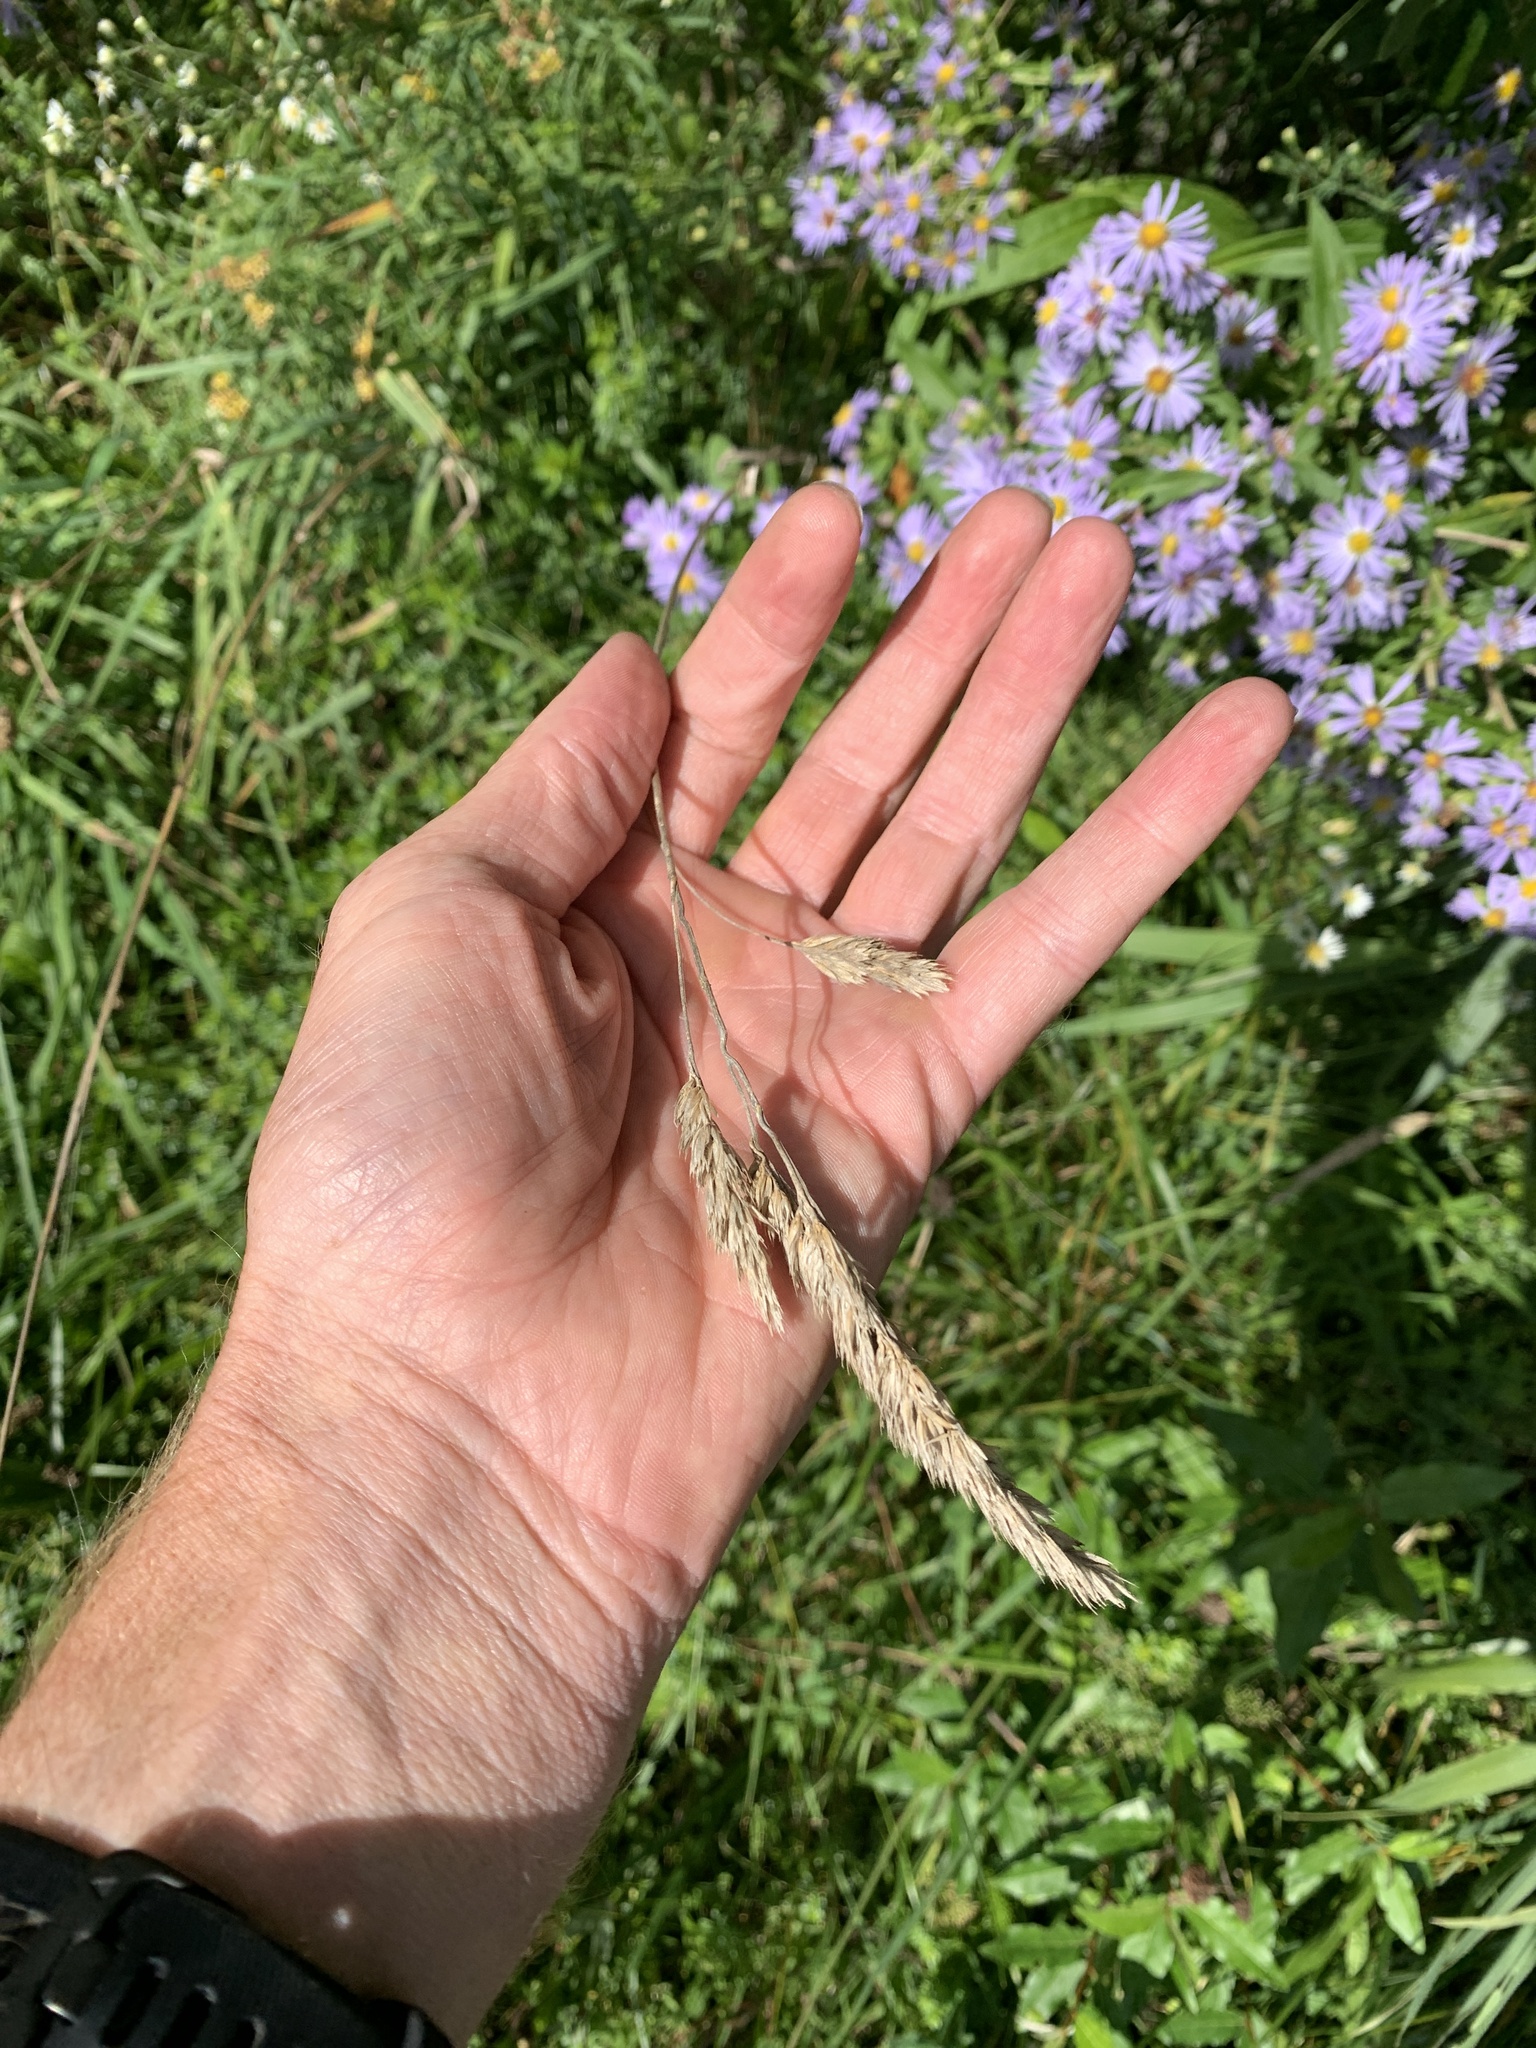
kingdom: Plantae
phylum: Tracheophyta
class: Liliopsida
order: Poales
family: Poaceae
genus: Dactylis
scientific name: Dactylis glomerata
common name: Orchardgrass
